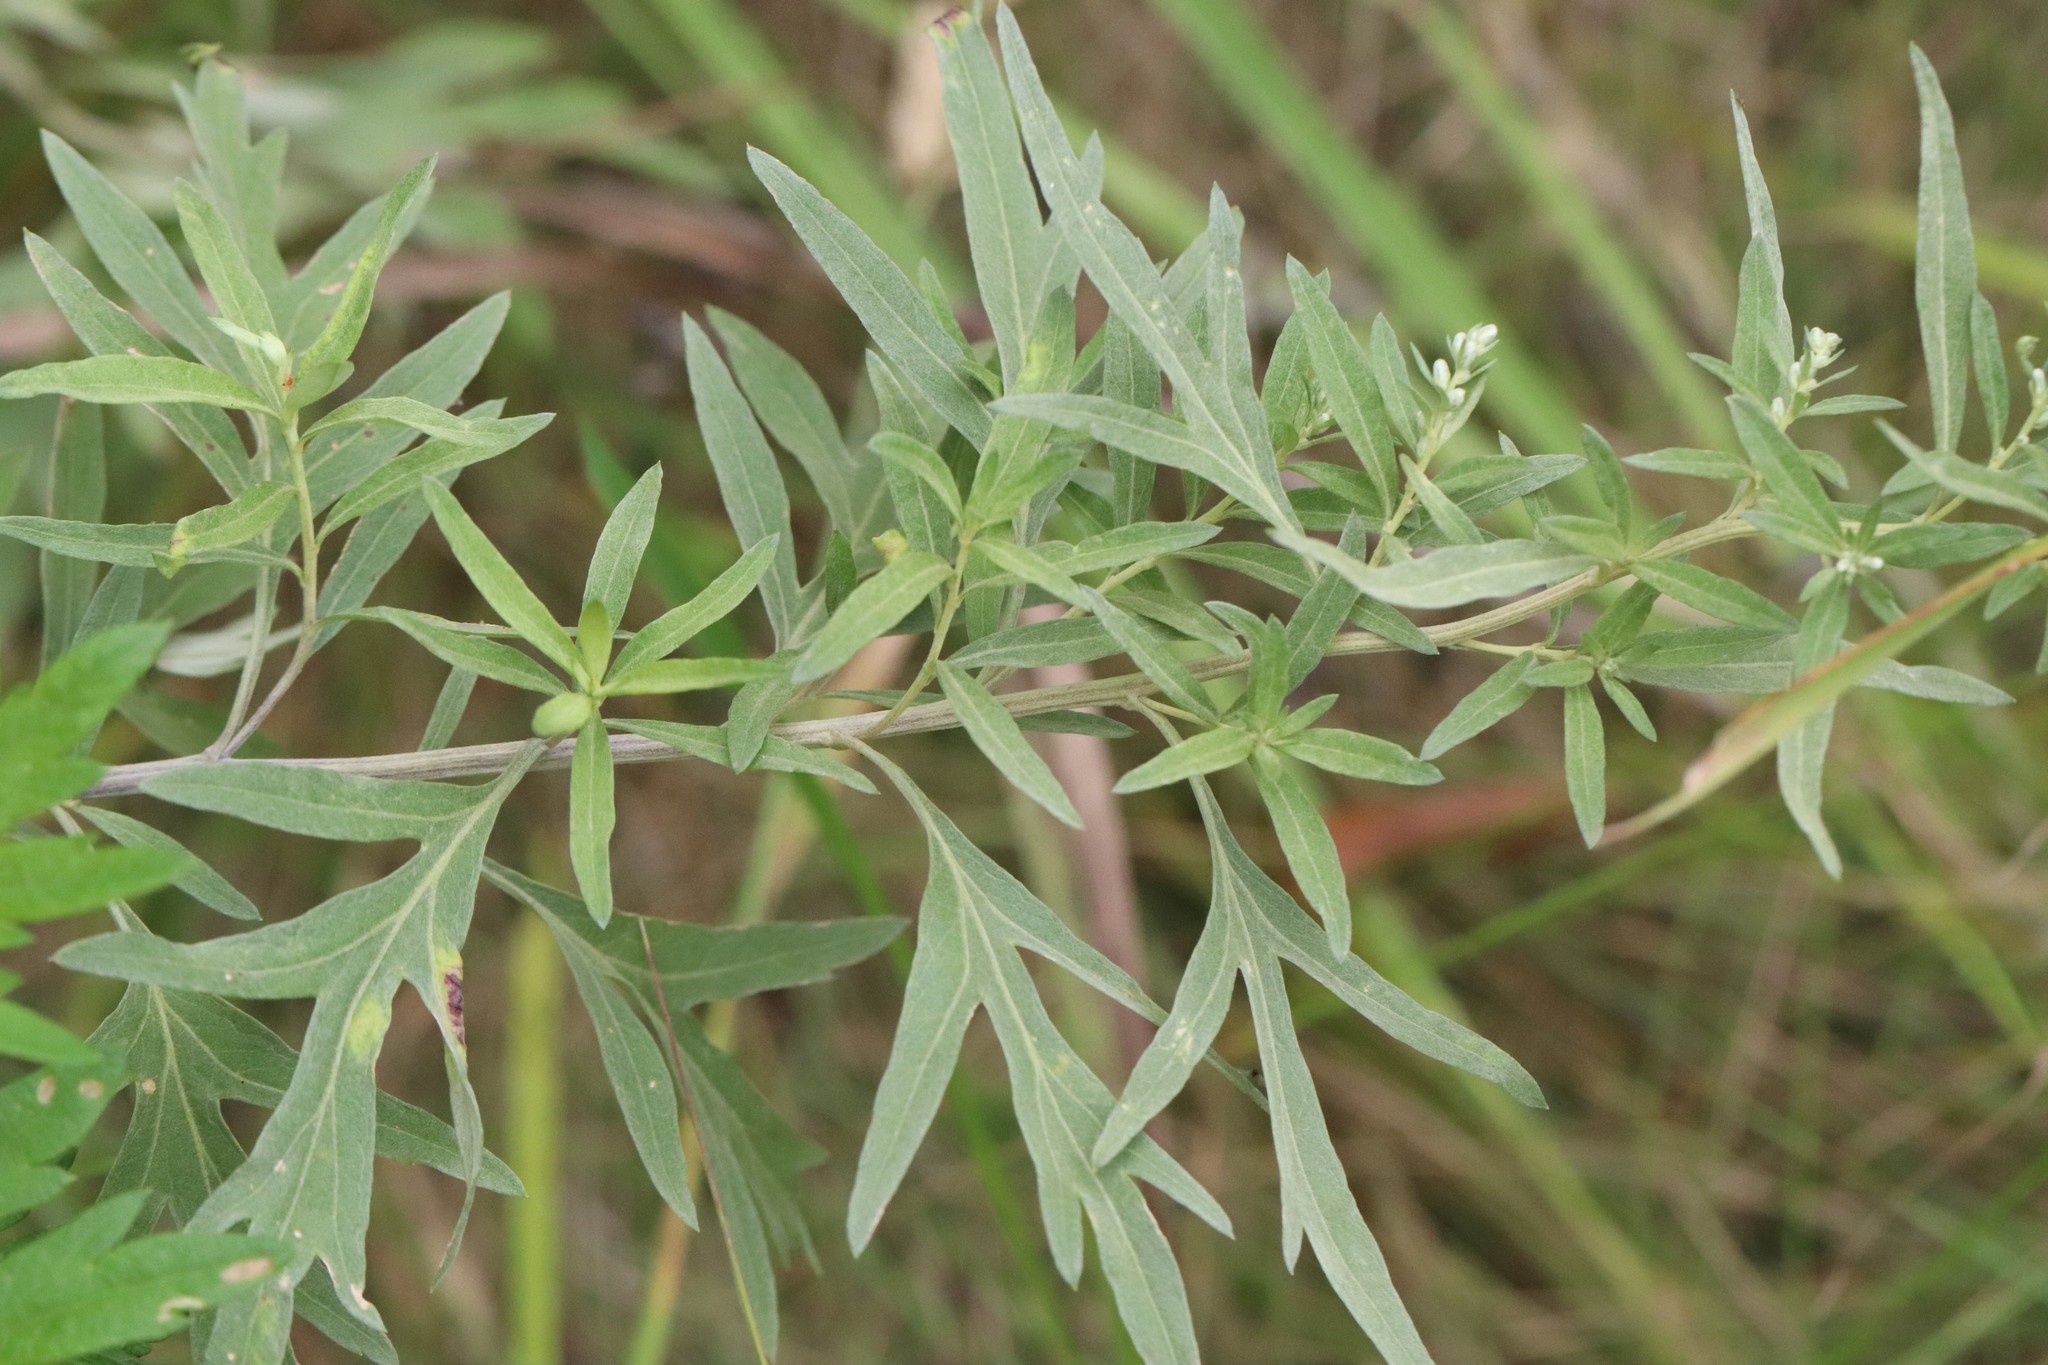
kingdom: Plantae
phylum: Tracheophyta
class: Magnoliopsida
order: Asterales
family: Asteraceae
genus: Artemisia
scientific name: Artemisia umbrosa
